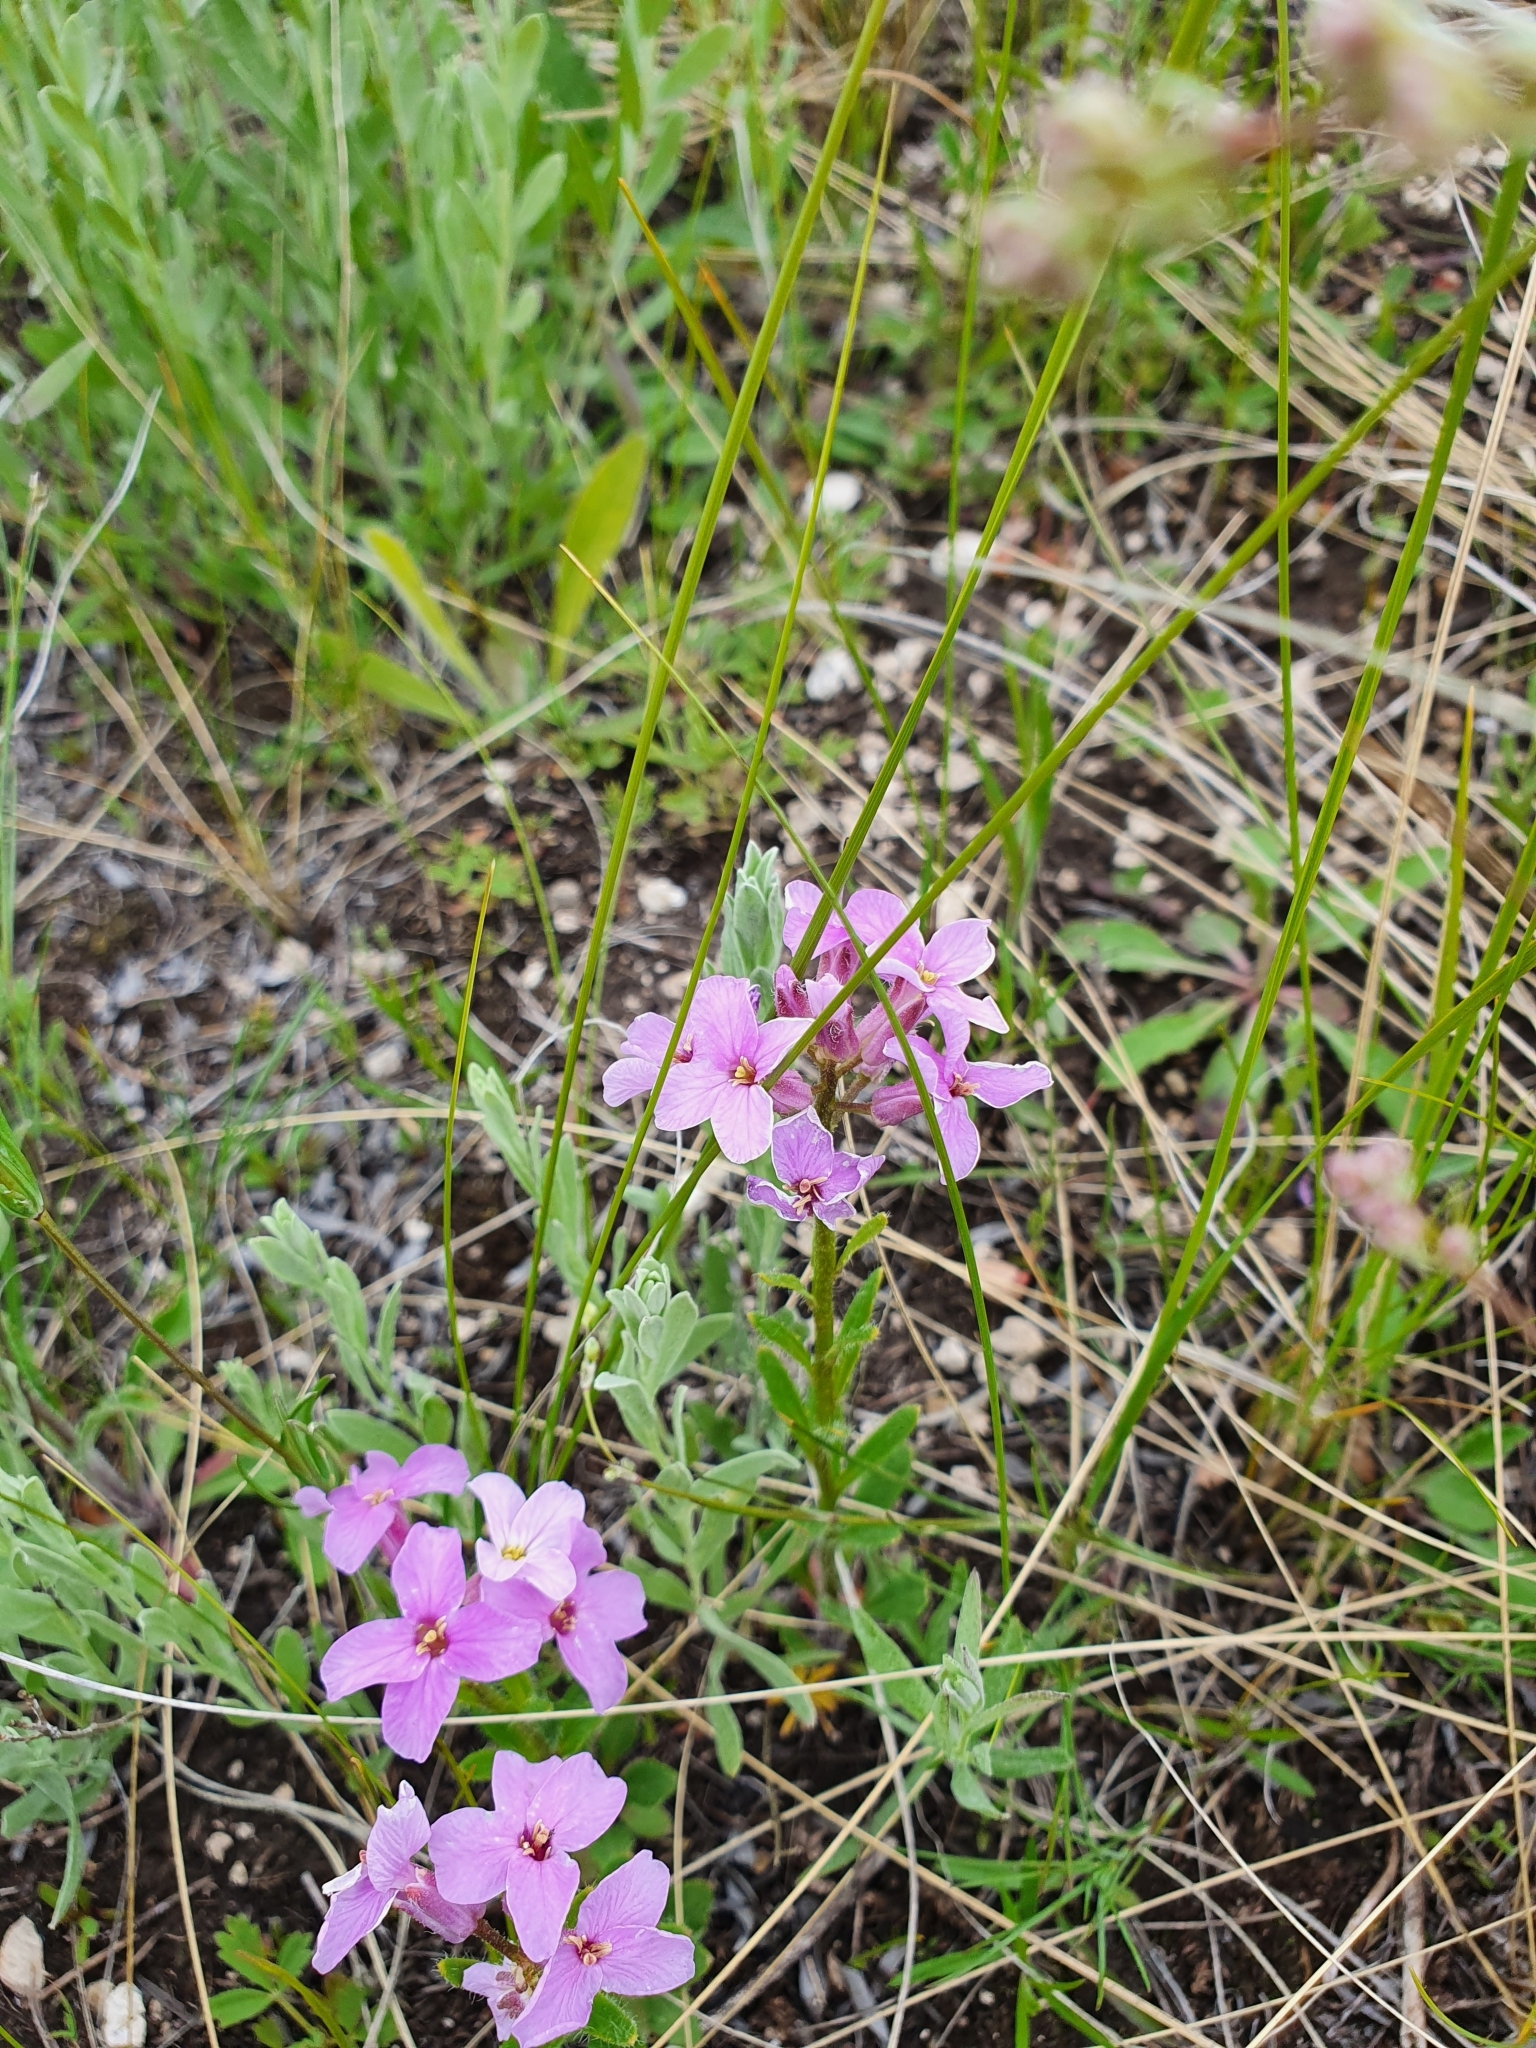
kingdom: Plantae
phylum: Tracheophyta
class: Magnoliopsida
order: Brassicales
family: Brassicaceae
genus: Clausia
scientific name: Clausia aprica
